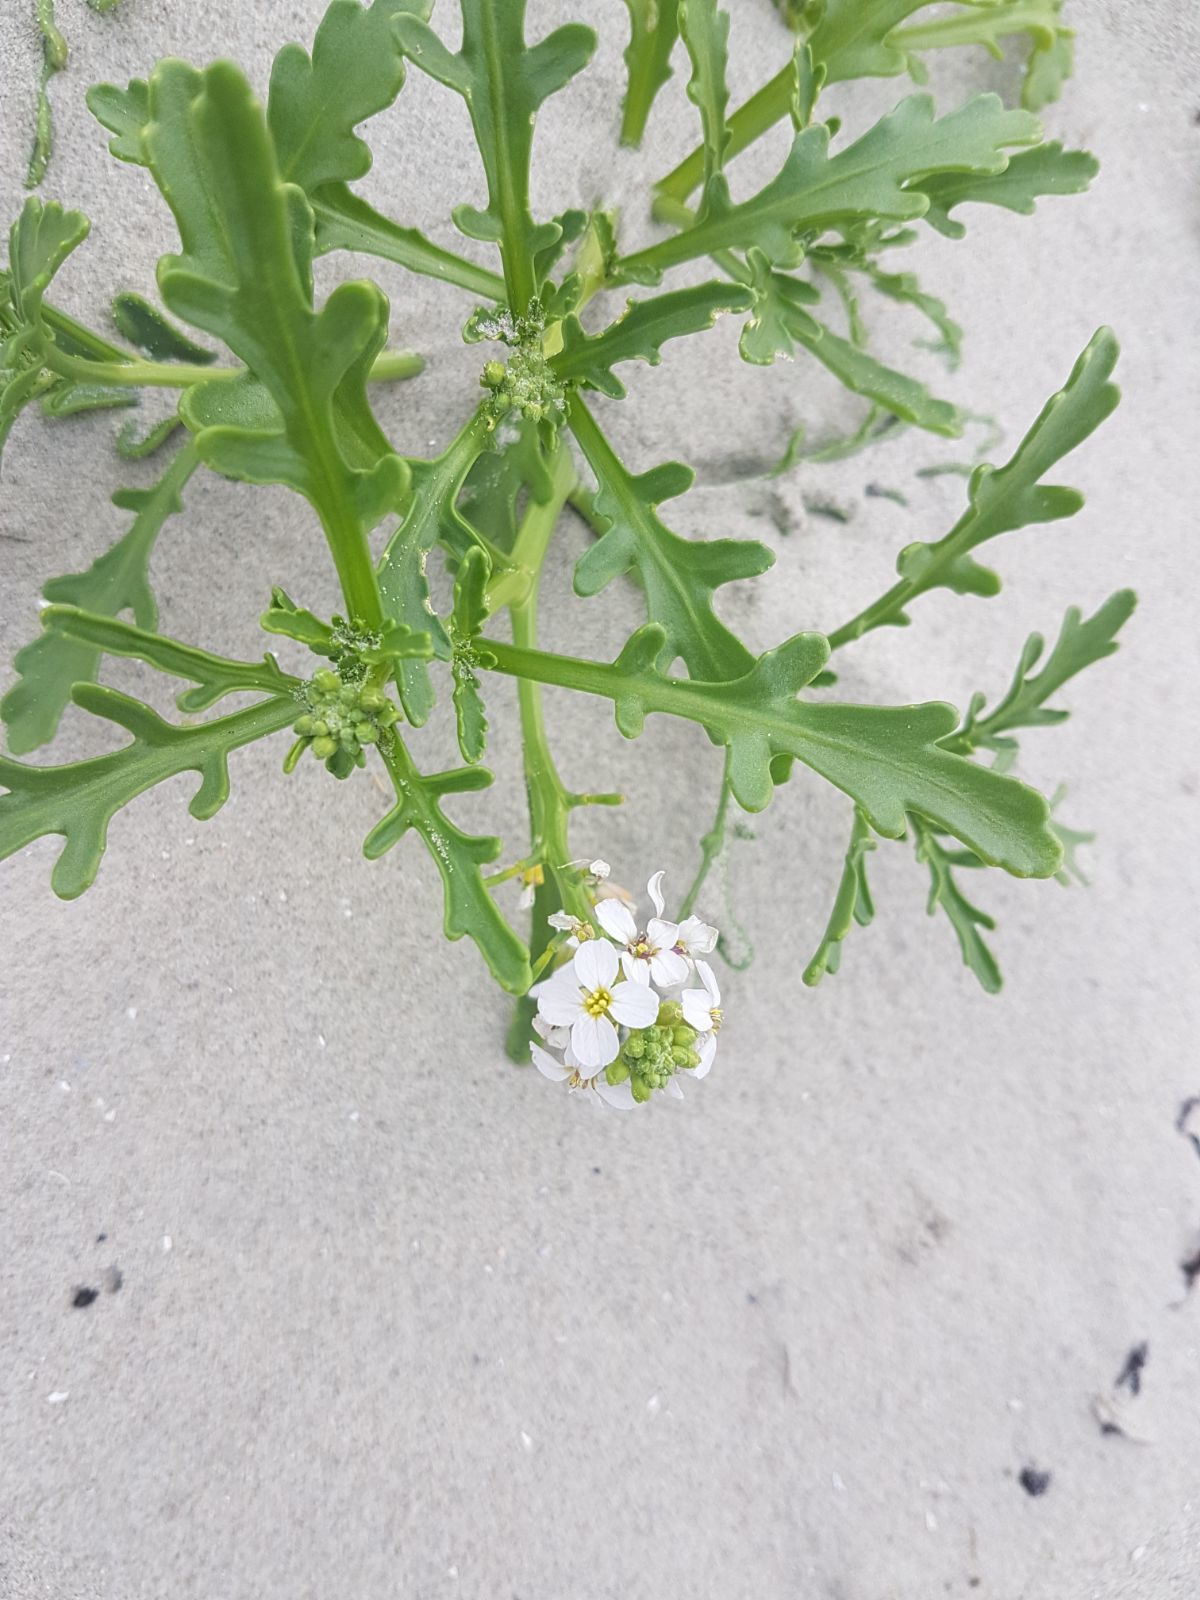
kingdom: Plantae
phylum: Tracheophyta
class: Magnoliopsida
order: Brassicales
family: Brassicaceae
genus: Cakile
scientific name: Cakile maritima
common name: Sea rocket
